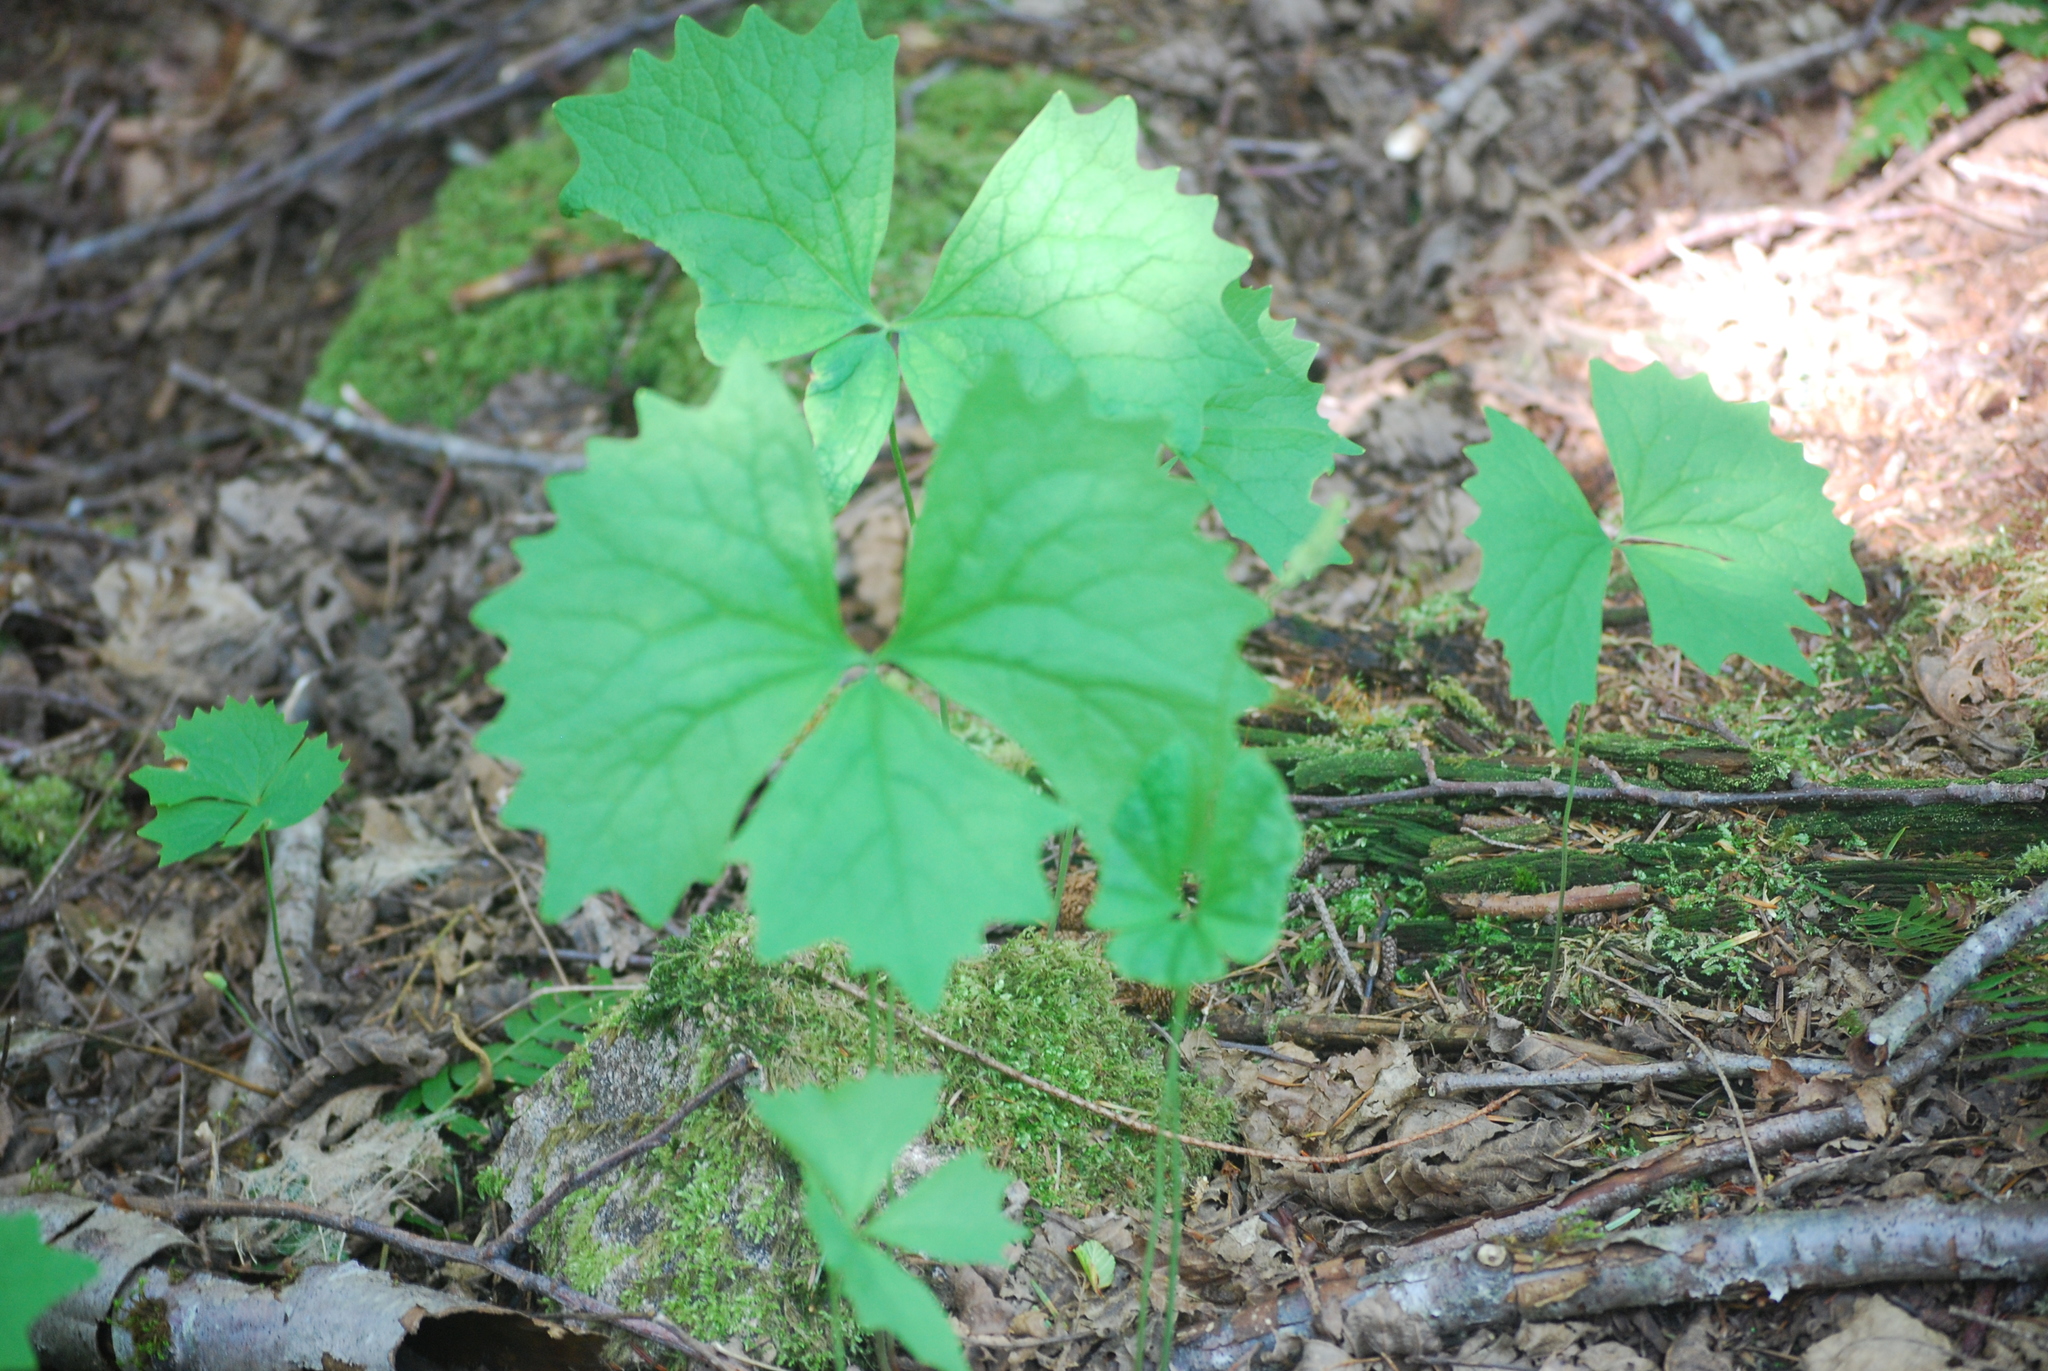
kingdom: Plantae
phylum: Tracheophyta
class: Magnoliopsida
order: Ranunculales
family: Berberidaceae
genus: Achlys
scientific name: Achlys triphylla
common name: Vanilla-leaf
